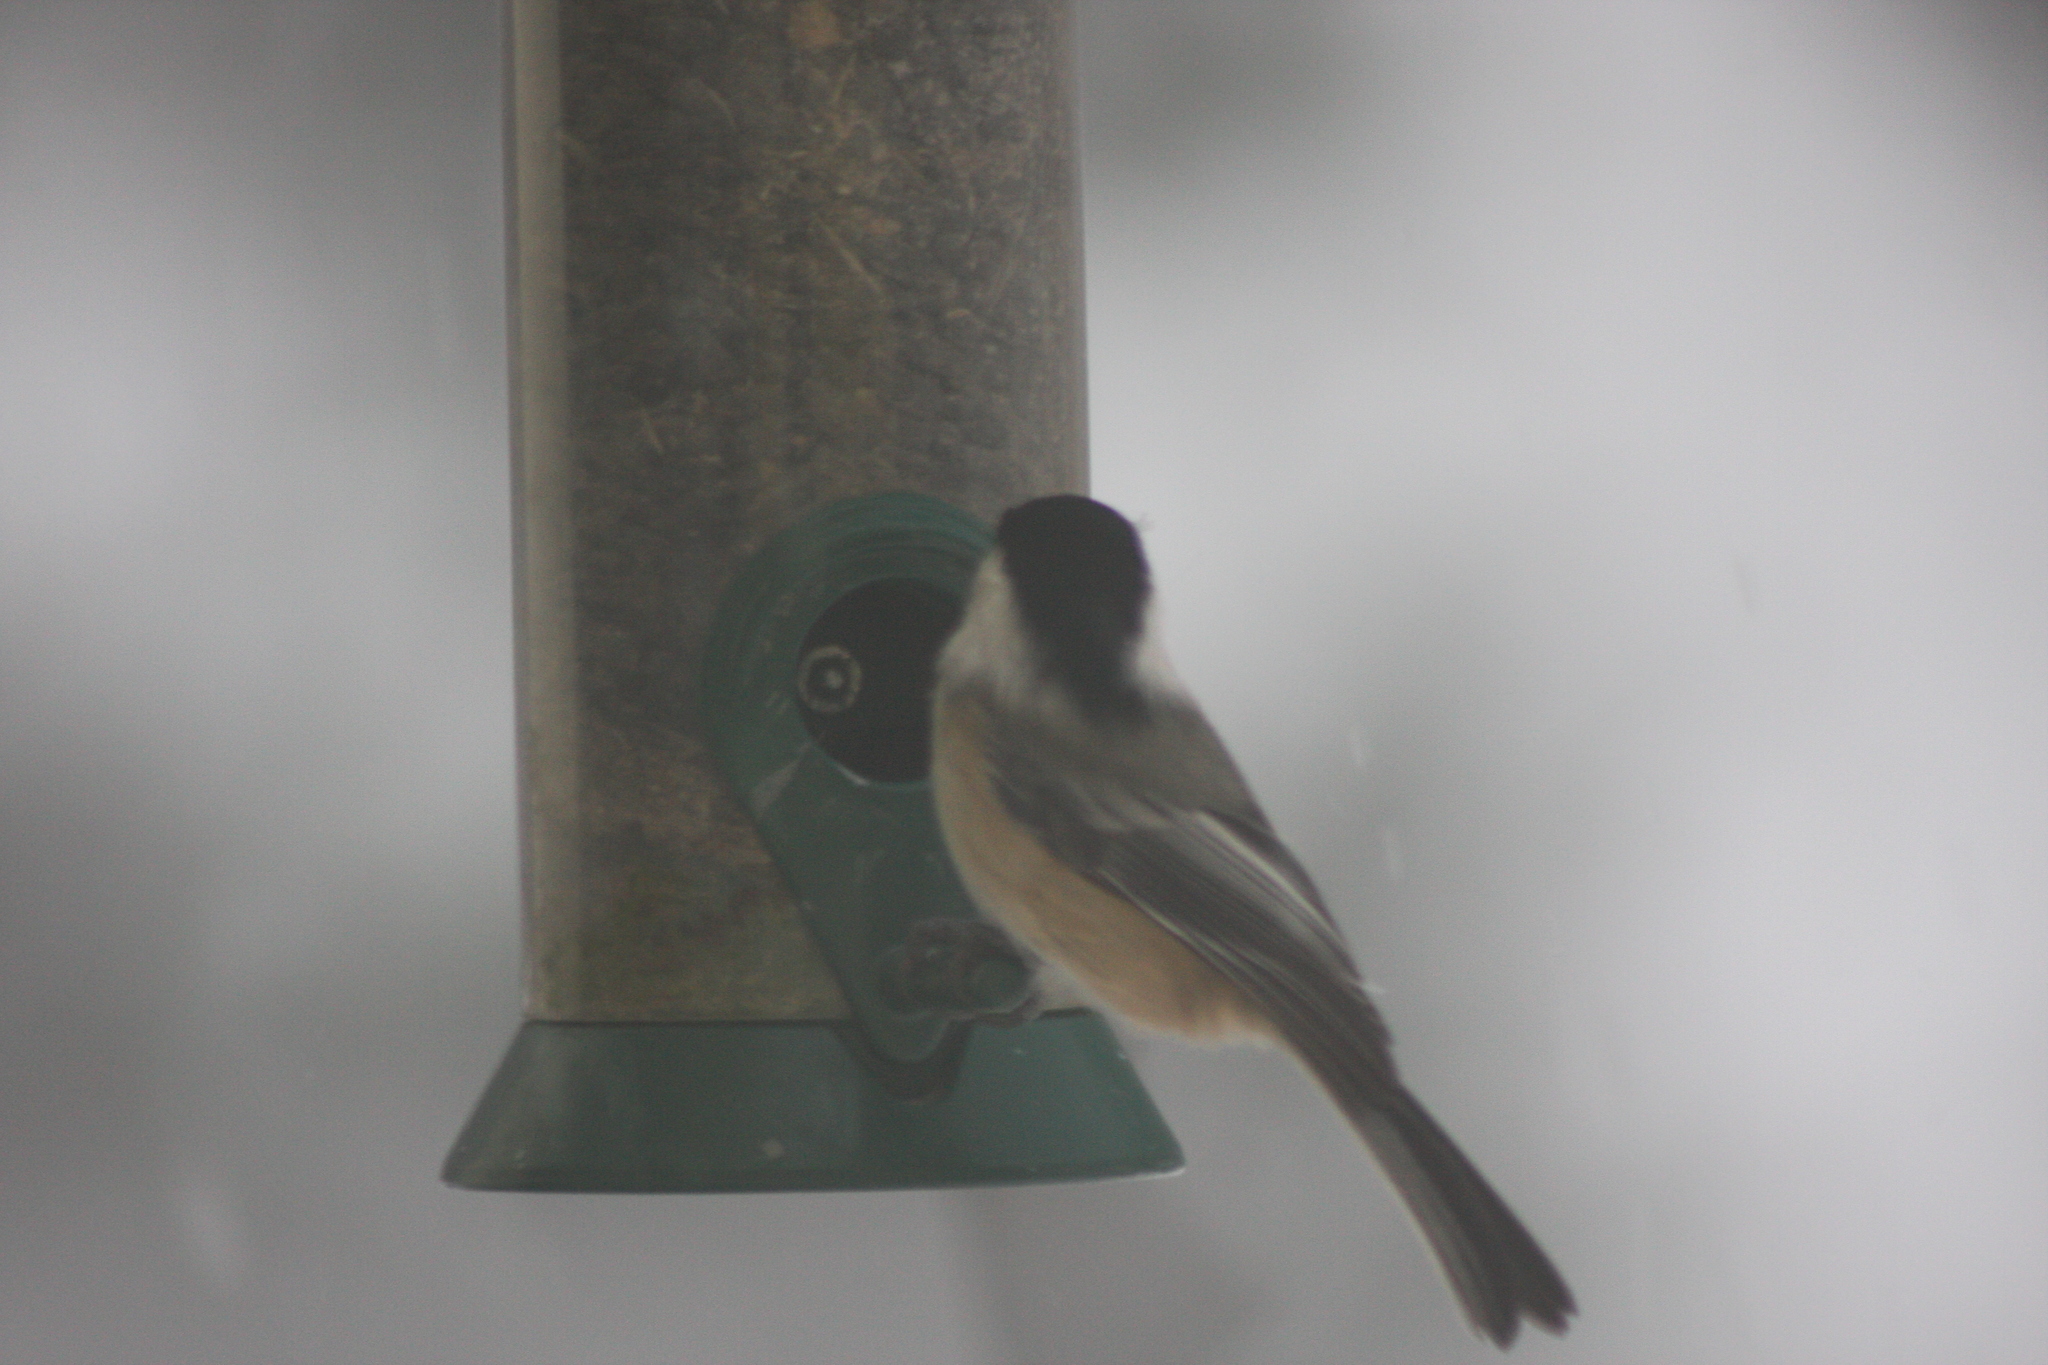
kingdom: Animalia
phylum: Chordata
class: Aves
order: Passeriformes
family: Paridae
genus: Poecile
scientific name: Poecile atricapillus
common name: Black-capped chickadee
